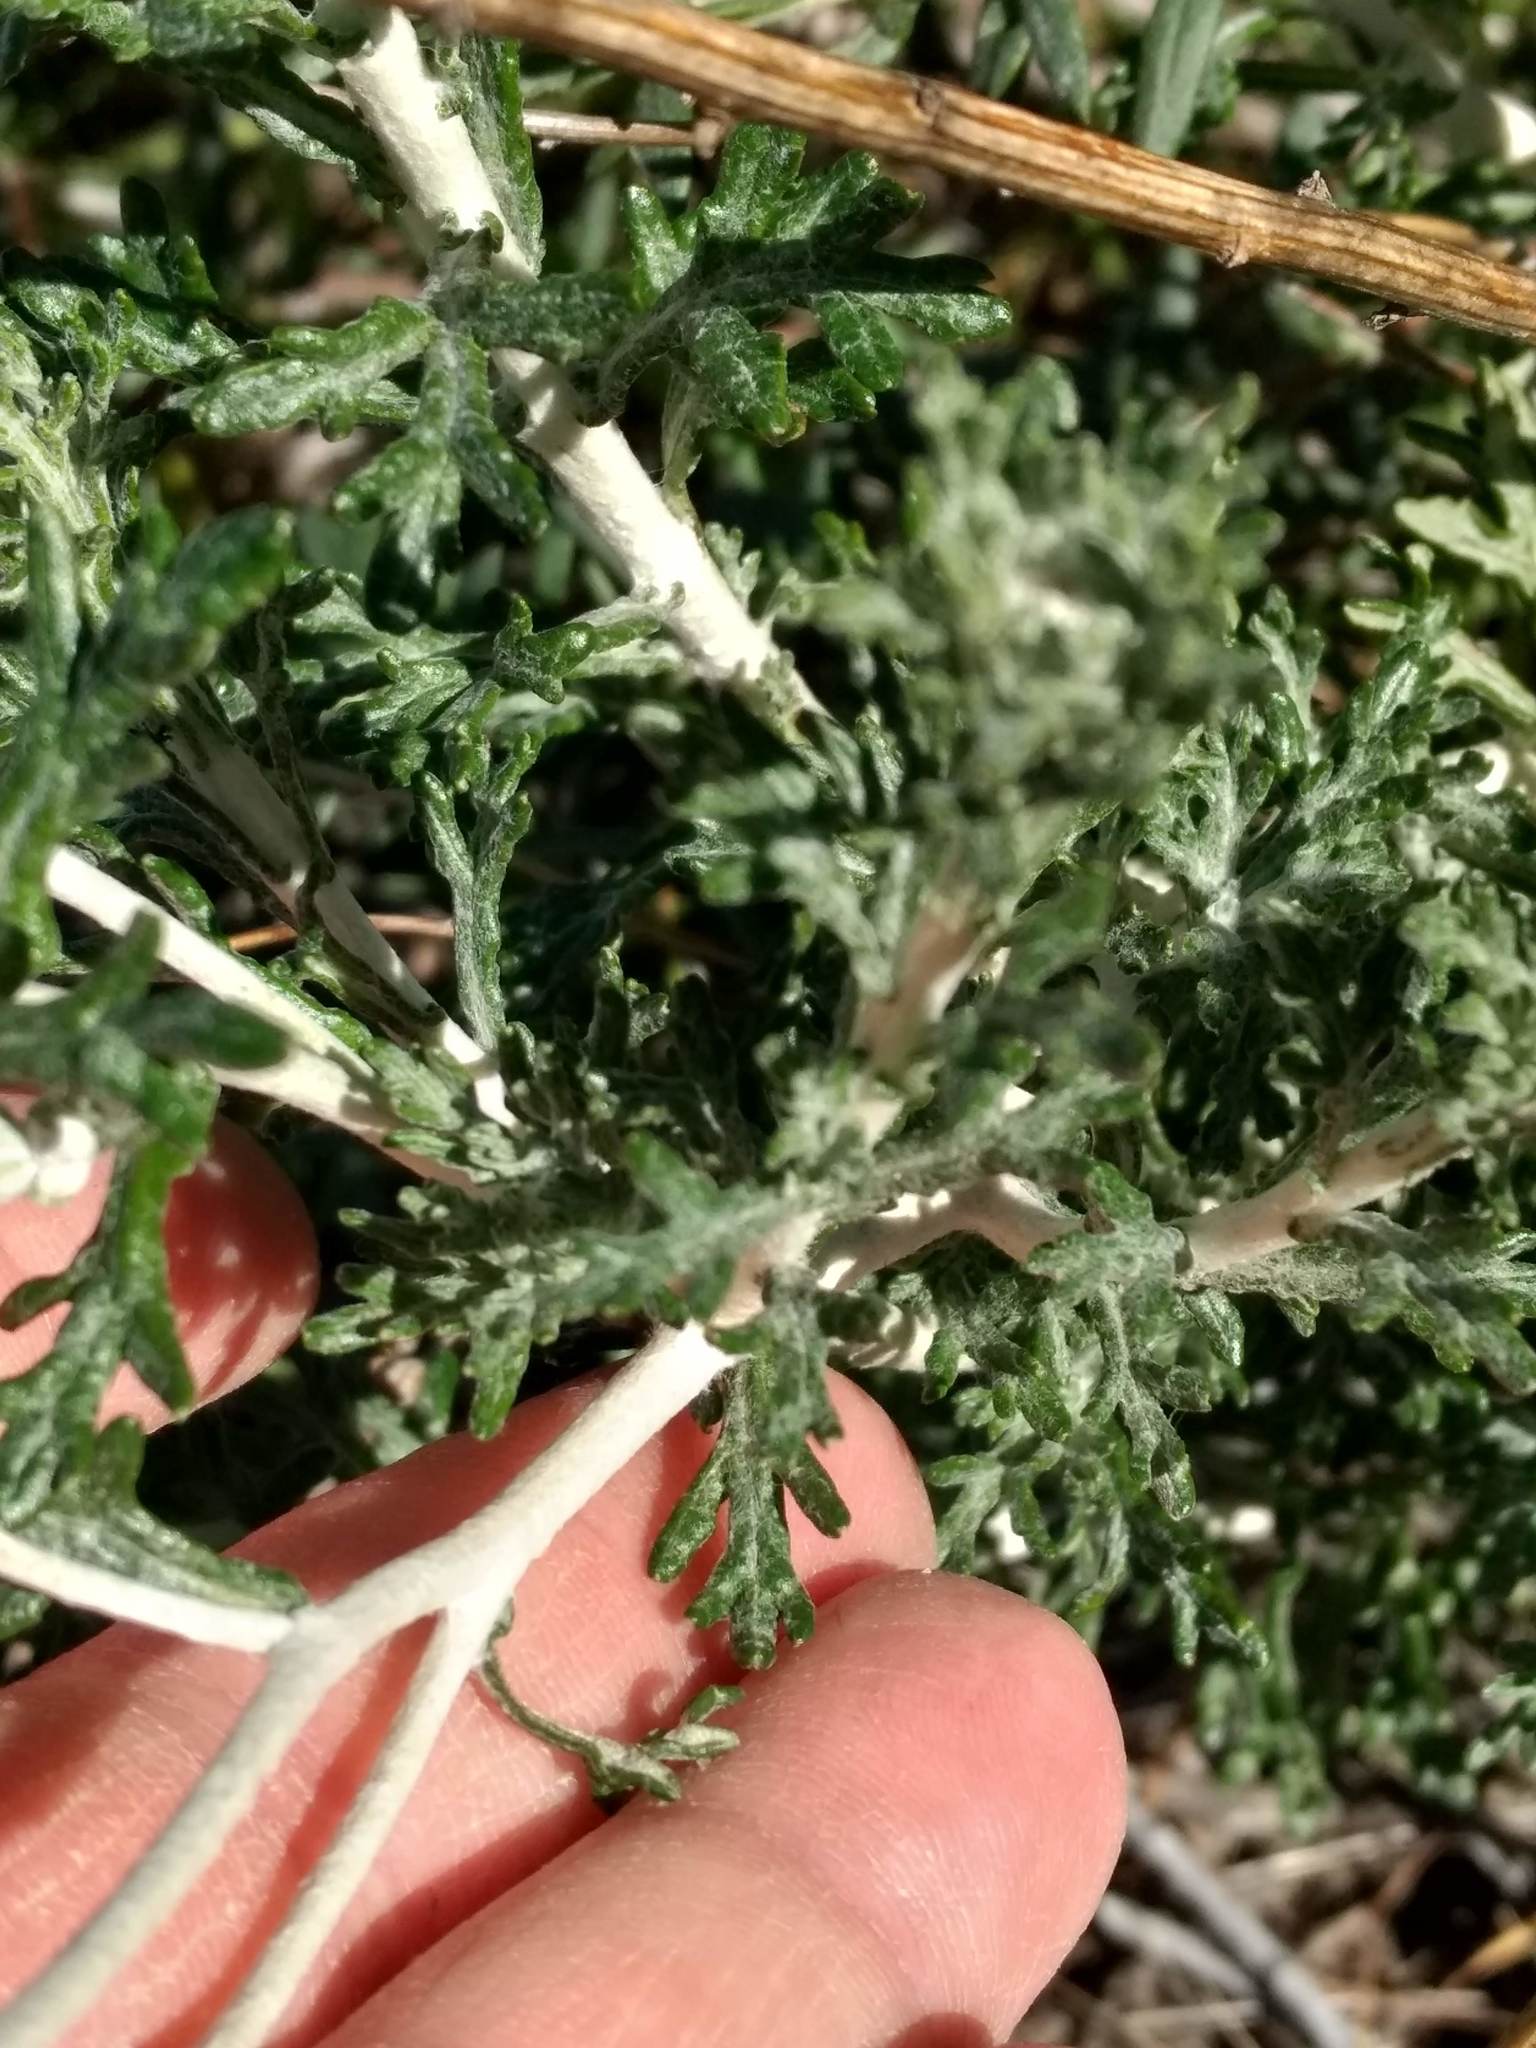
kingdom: Plantae
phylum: Tracheophyta
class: Magnoliopsida
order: Asterales
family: Asteraceae
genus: Eriophyllum
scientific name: Eriophyllum confertiflorum
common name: Golden-yarrow
